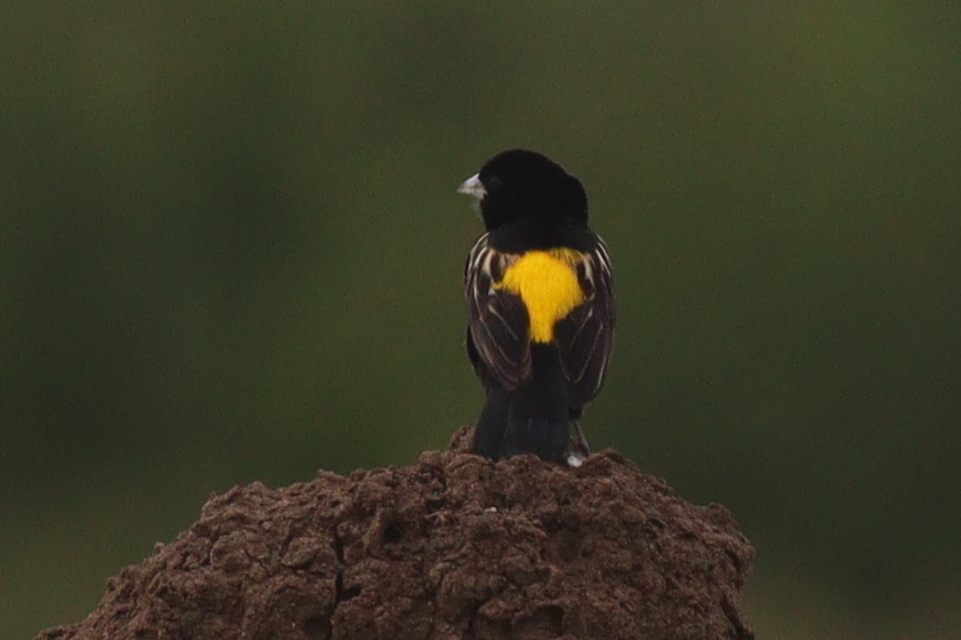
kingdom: Animalia
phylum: Chordata
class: Aves
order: Passeriformes
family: Ploceidae
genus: Euplectes
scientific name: Euplectes capensis
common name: Yellow bishop
